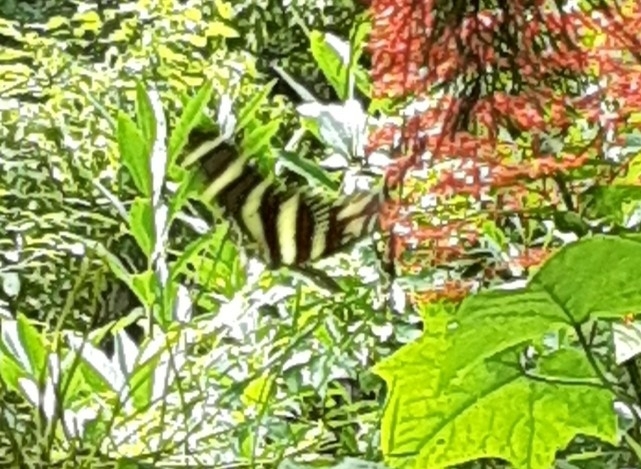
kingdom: Animalia
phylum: Arthropoda
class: Insecta
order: Lepidoptera
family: Nymphalidae
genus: Heliconius
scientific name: Heliconius charithonia
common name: Zebra long wing
